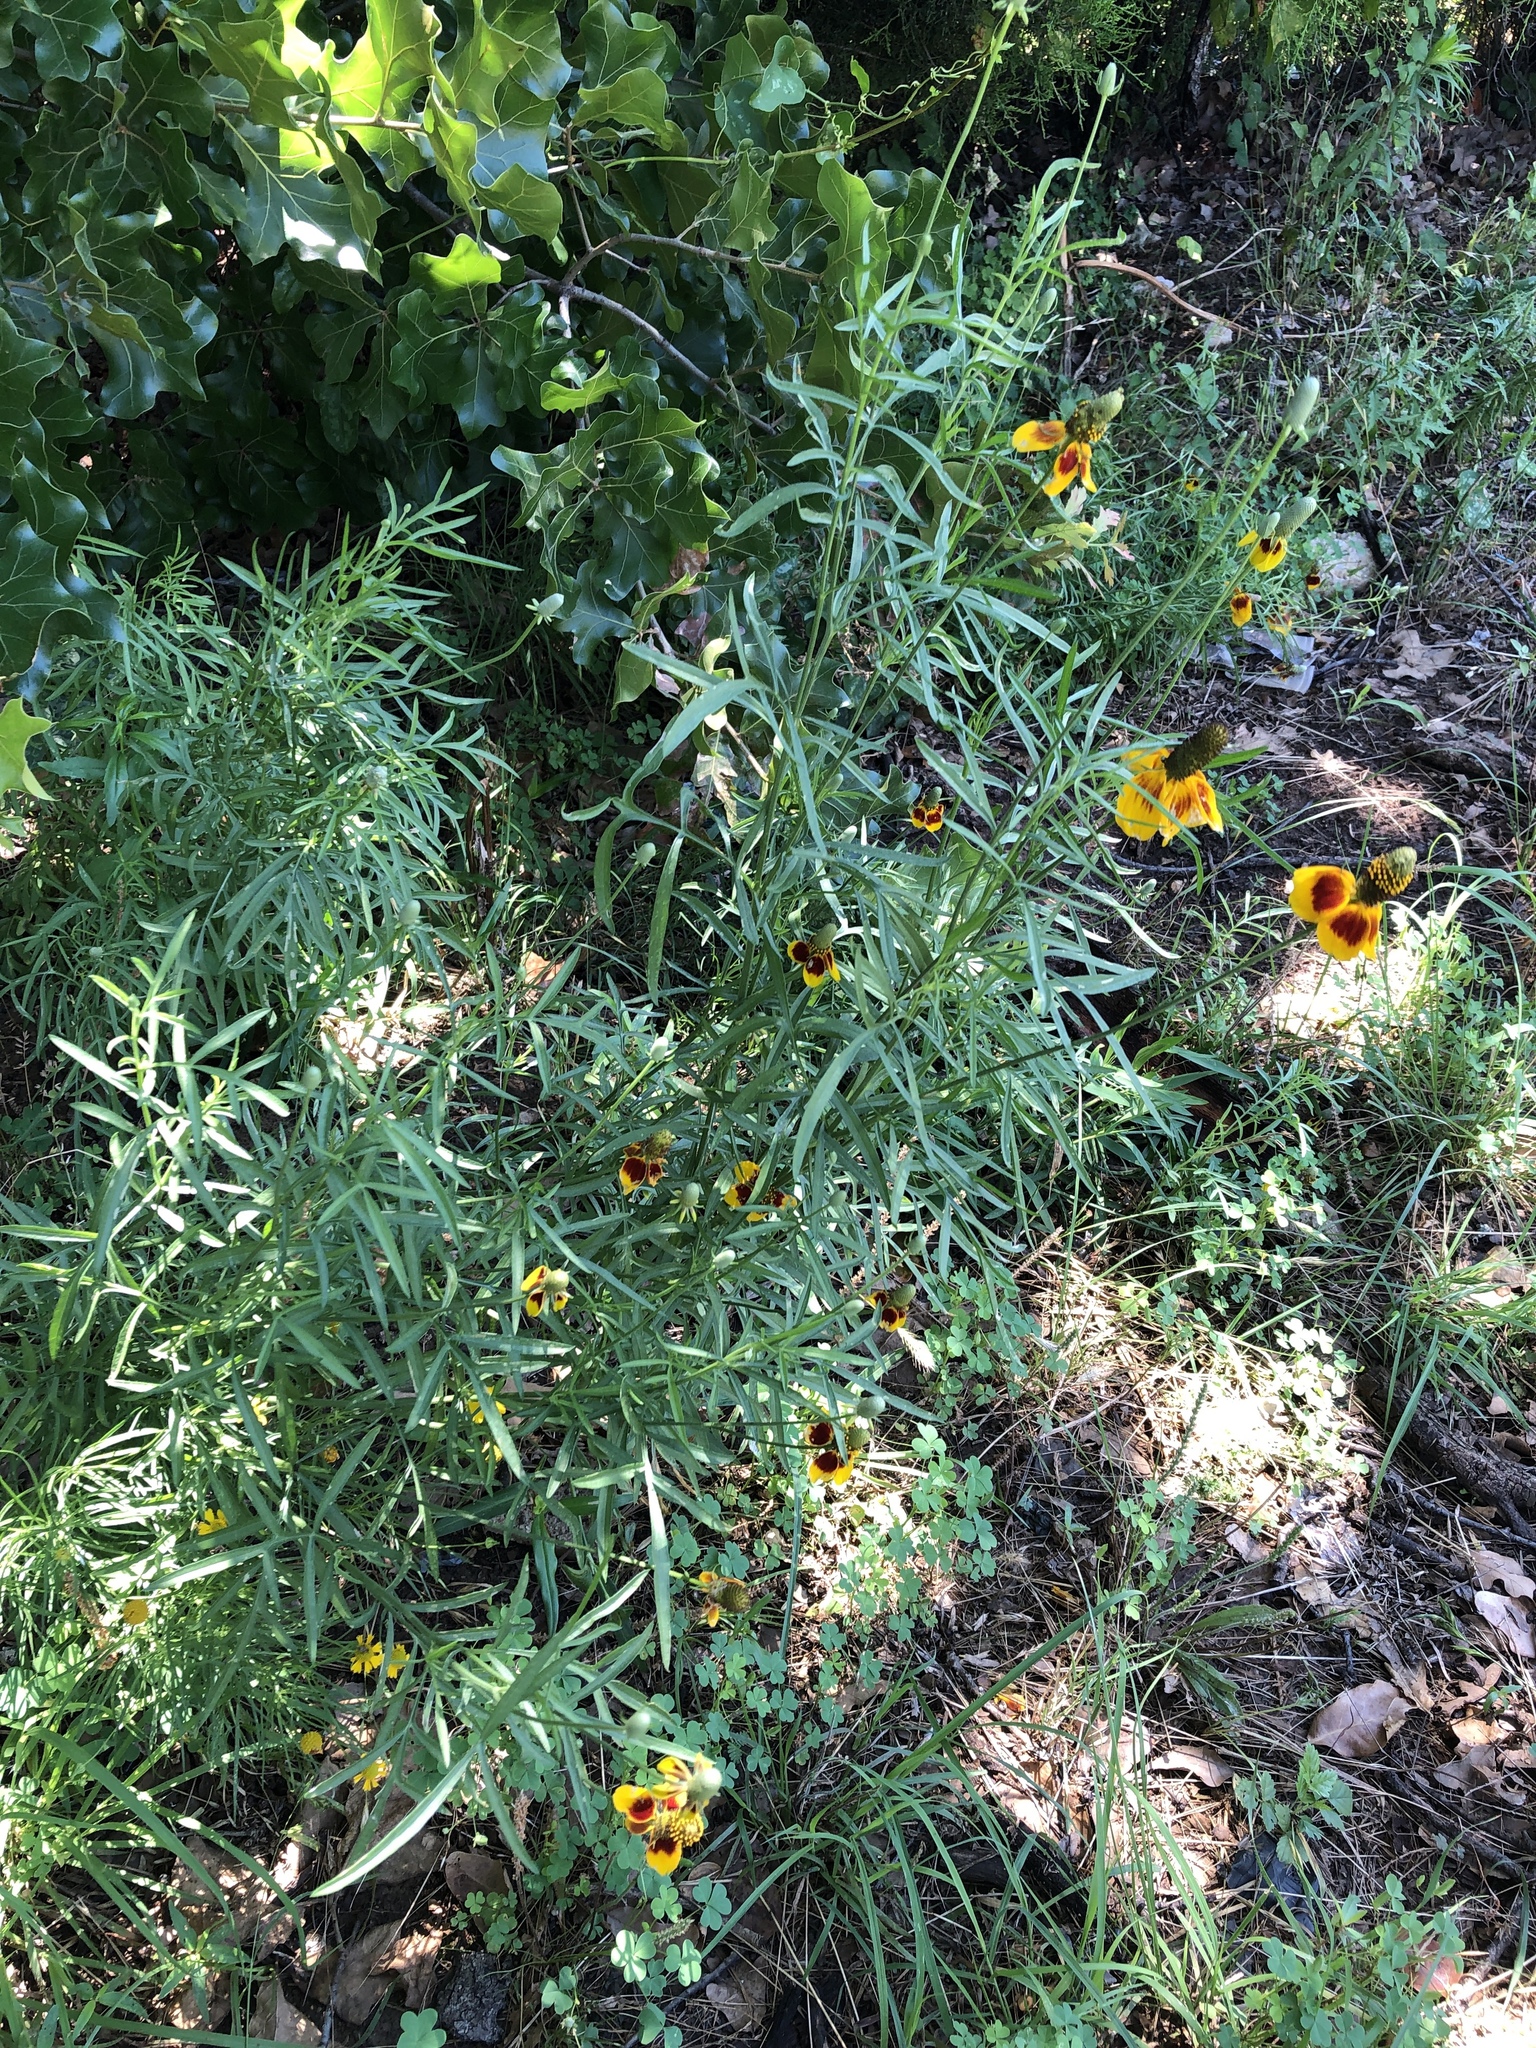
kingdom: Plantae
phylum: Tracheophyta
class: Magnoliopsida
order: Asterales
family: Asteraceae
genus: Ratibida
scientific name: Ratibida columnifera
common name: Prairie coneflower
